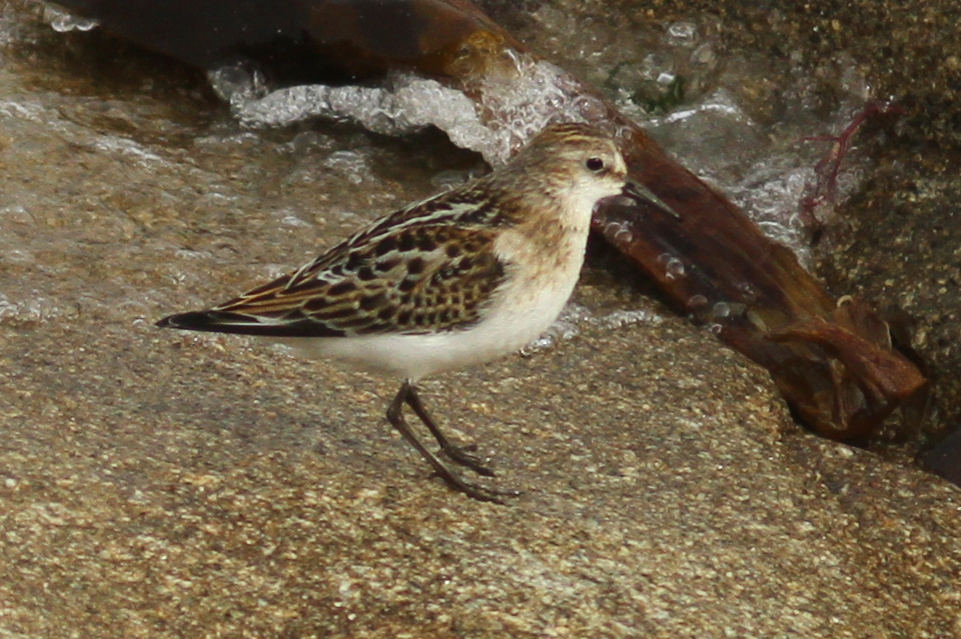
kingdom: Animalia
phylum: Chordata
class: Aves
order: Charadriiformes
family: Scolopacidae
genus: Calidris
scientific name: Calidris minuta
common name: Little stint
